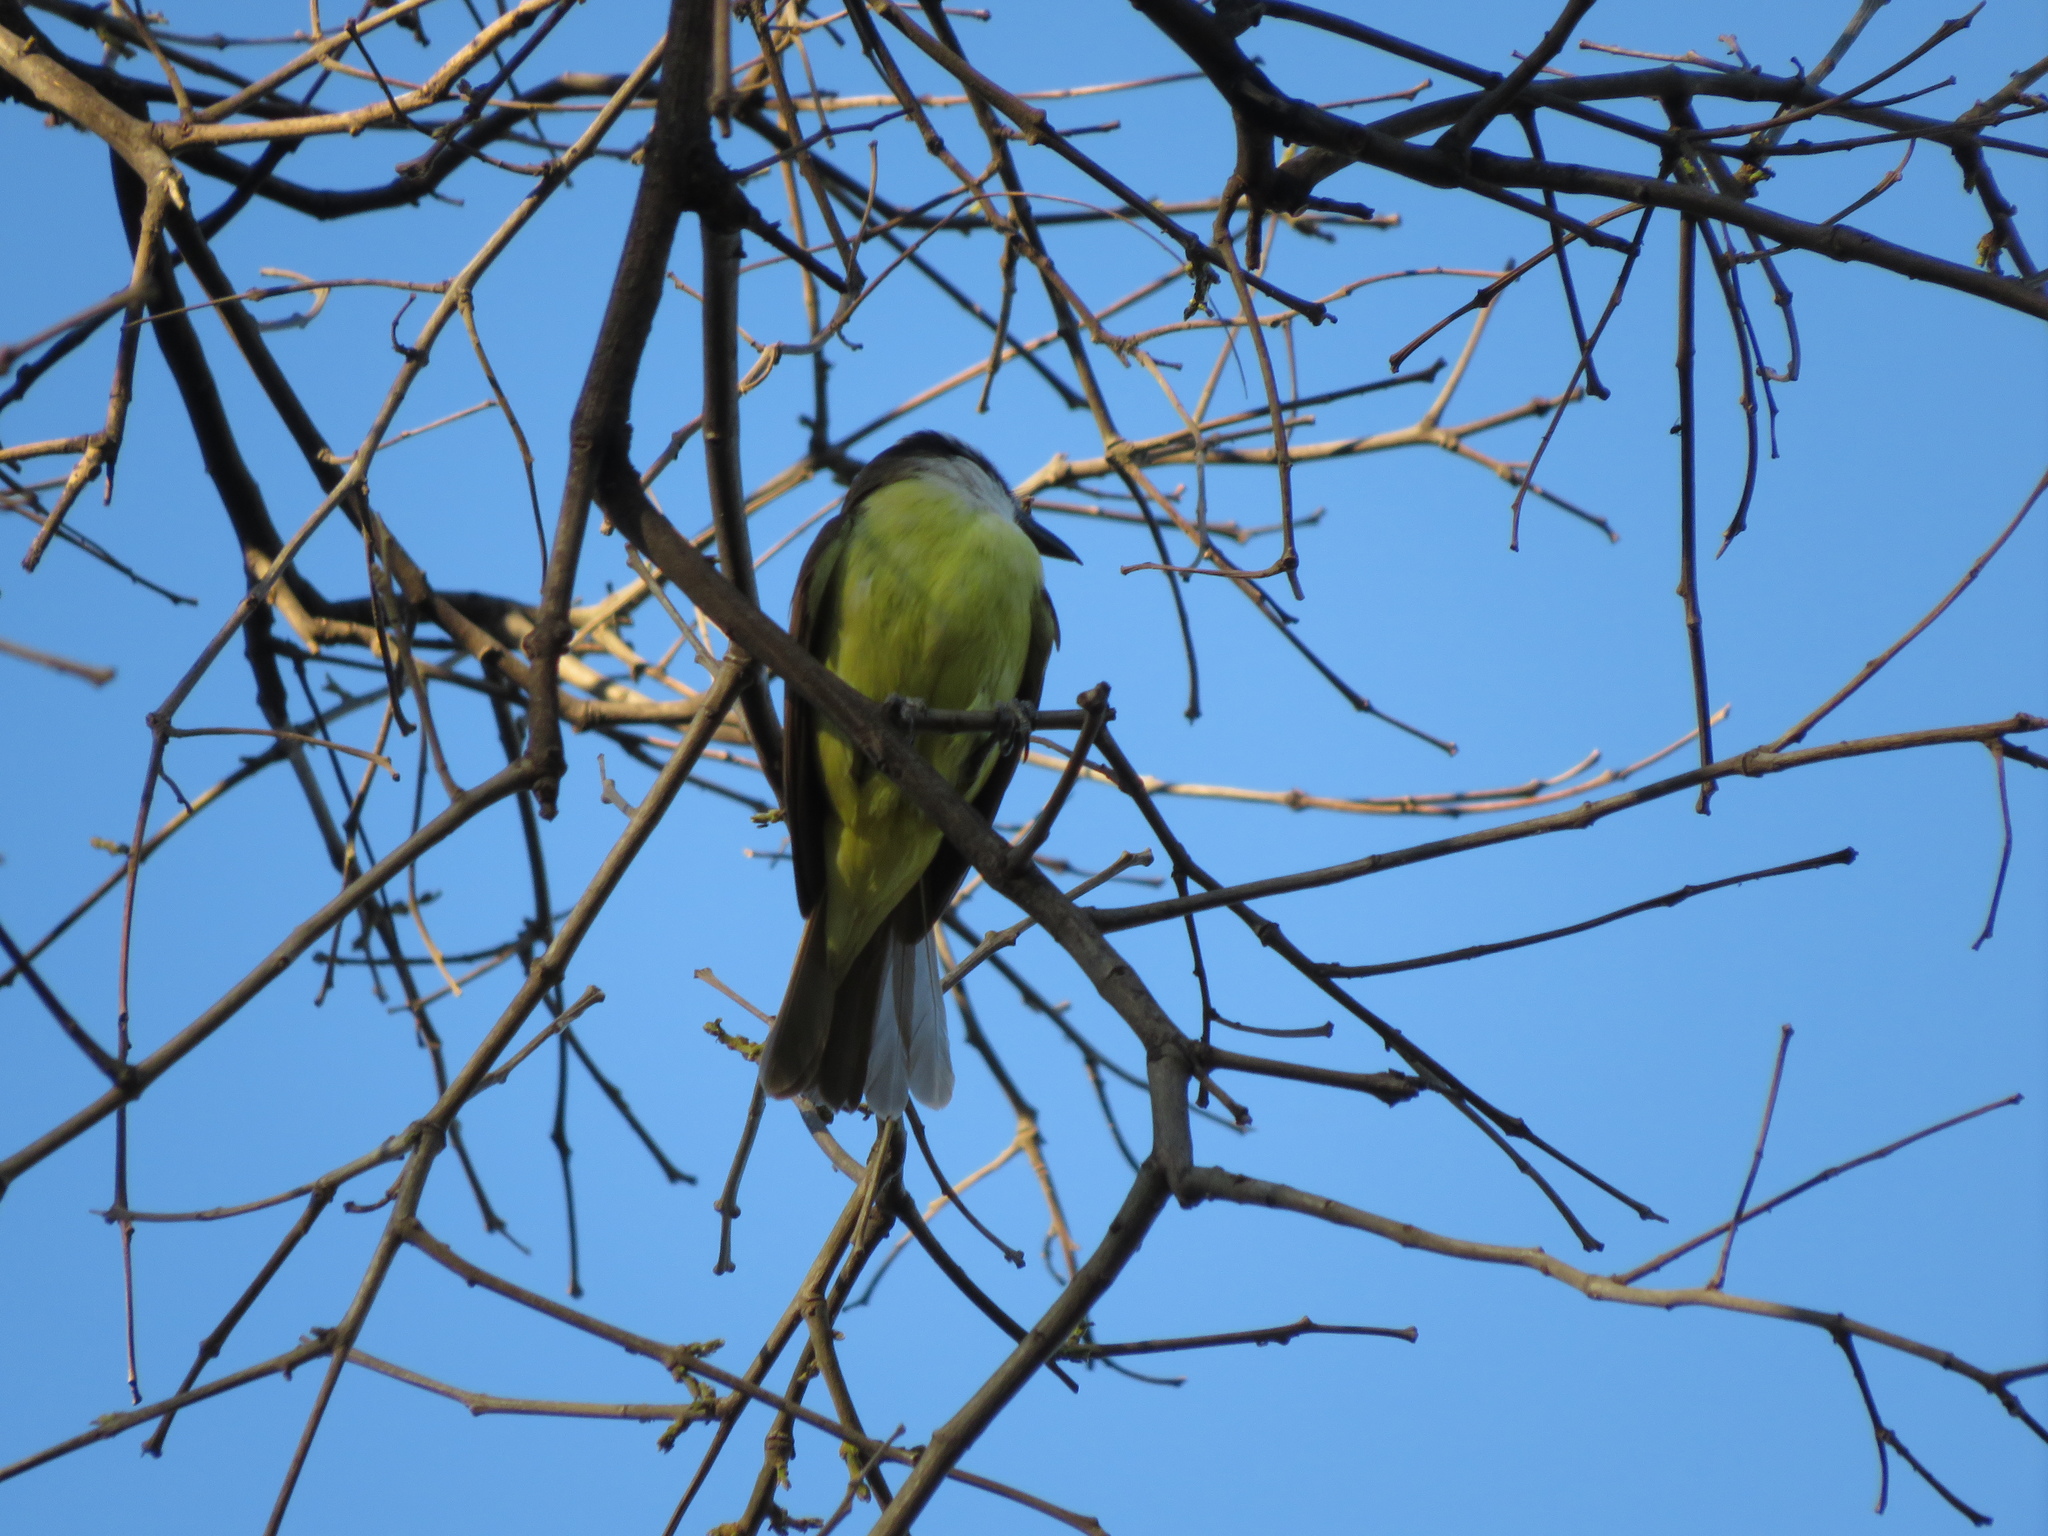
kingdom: Animalia
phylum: Chordata
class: Aves
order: Passeriformes
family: Tyrannidae
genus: Pitangus
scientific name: Pitangus sulphuratus
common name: Great kiskadee
